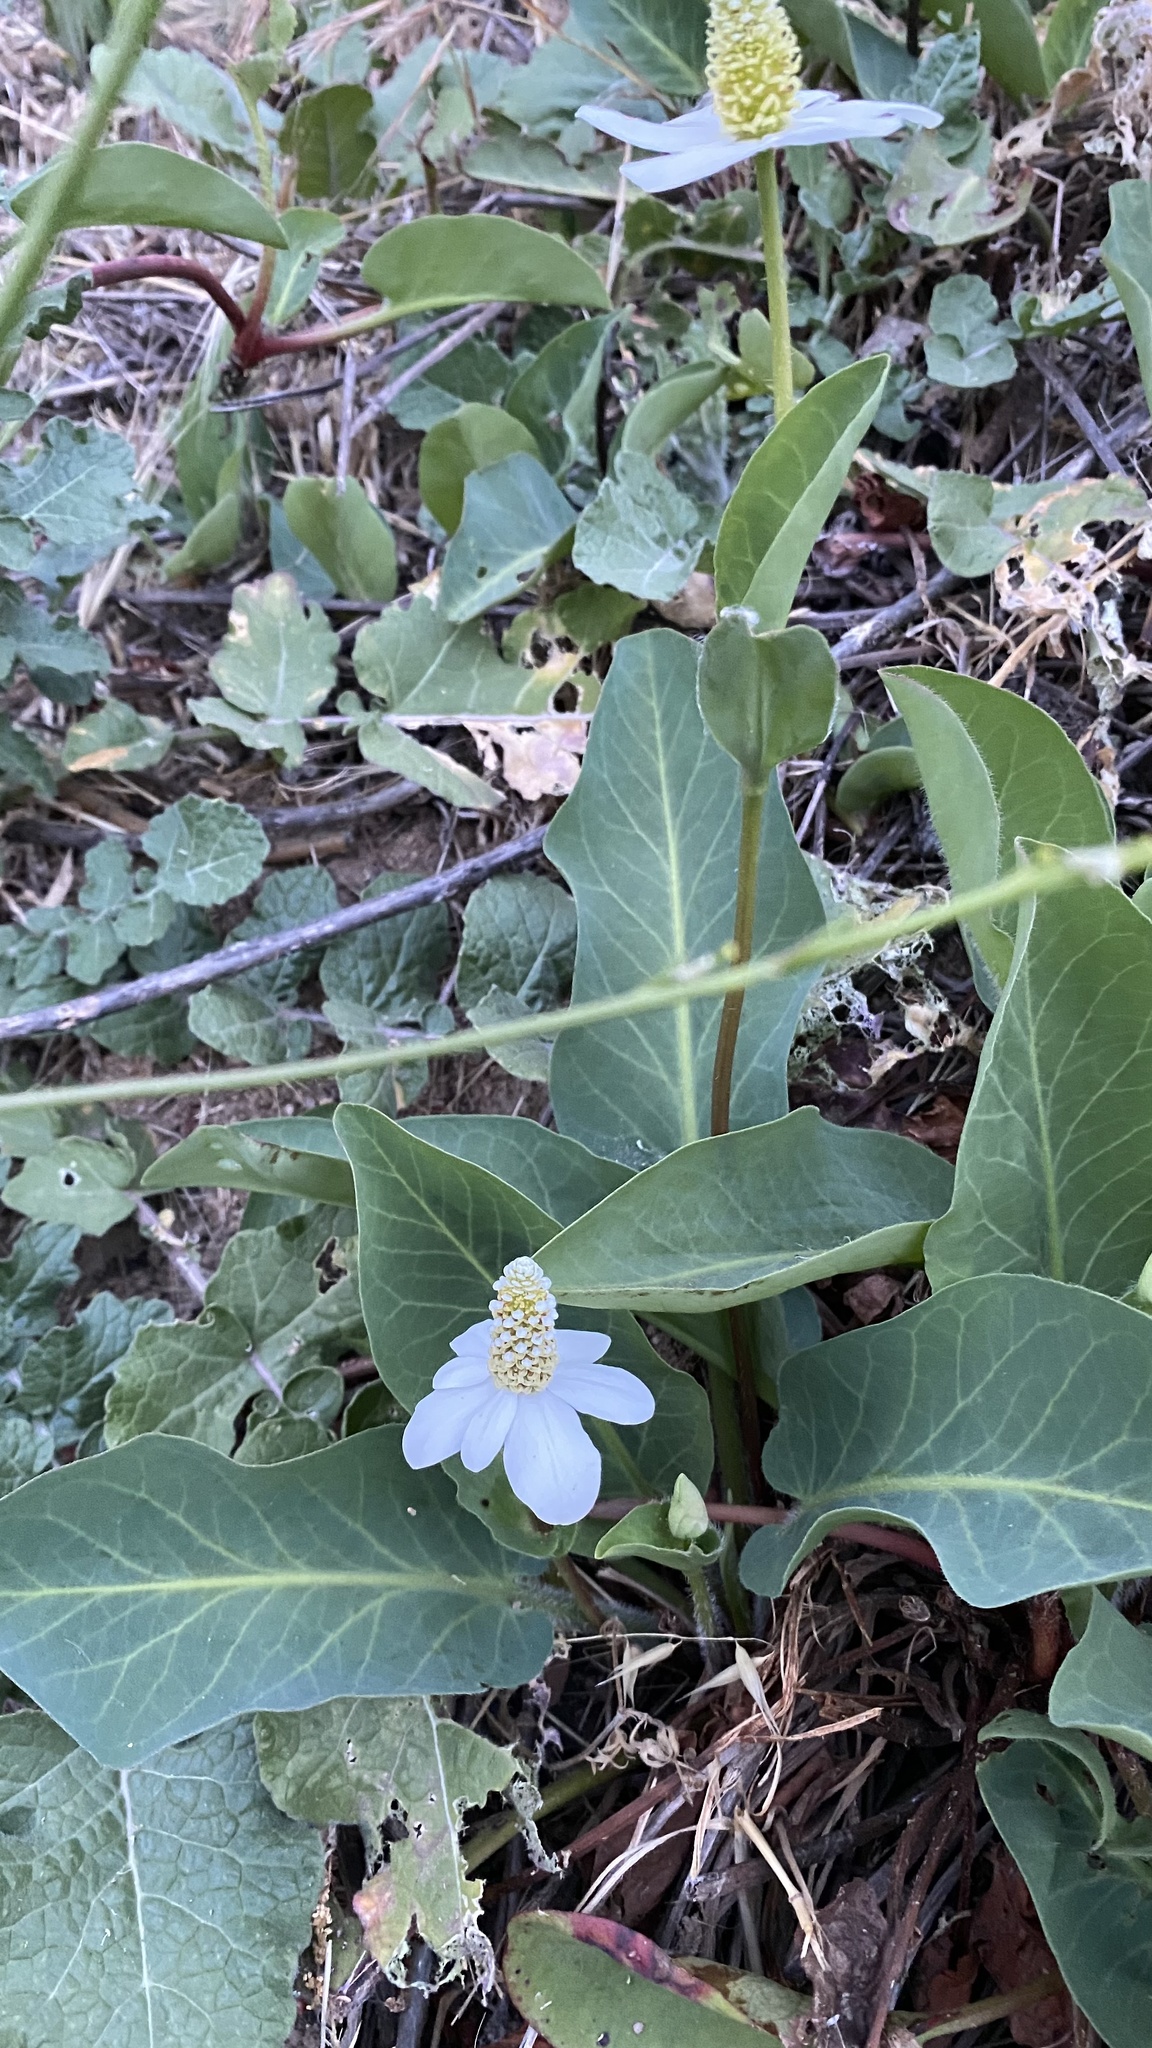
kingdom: Plantae
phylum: Tracheophyta
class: Magnoliopsida
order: Piperales
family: Saururaceae
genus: Anemopsis
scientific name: Anemopsis californica
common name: Apache-beads
